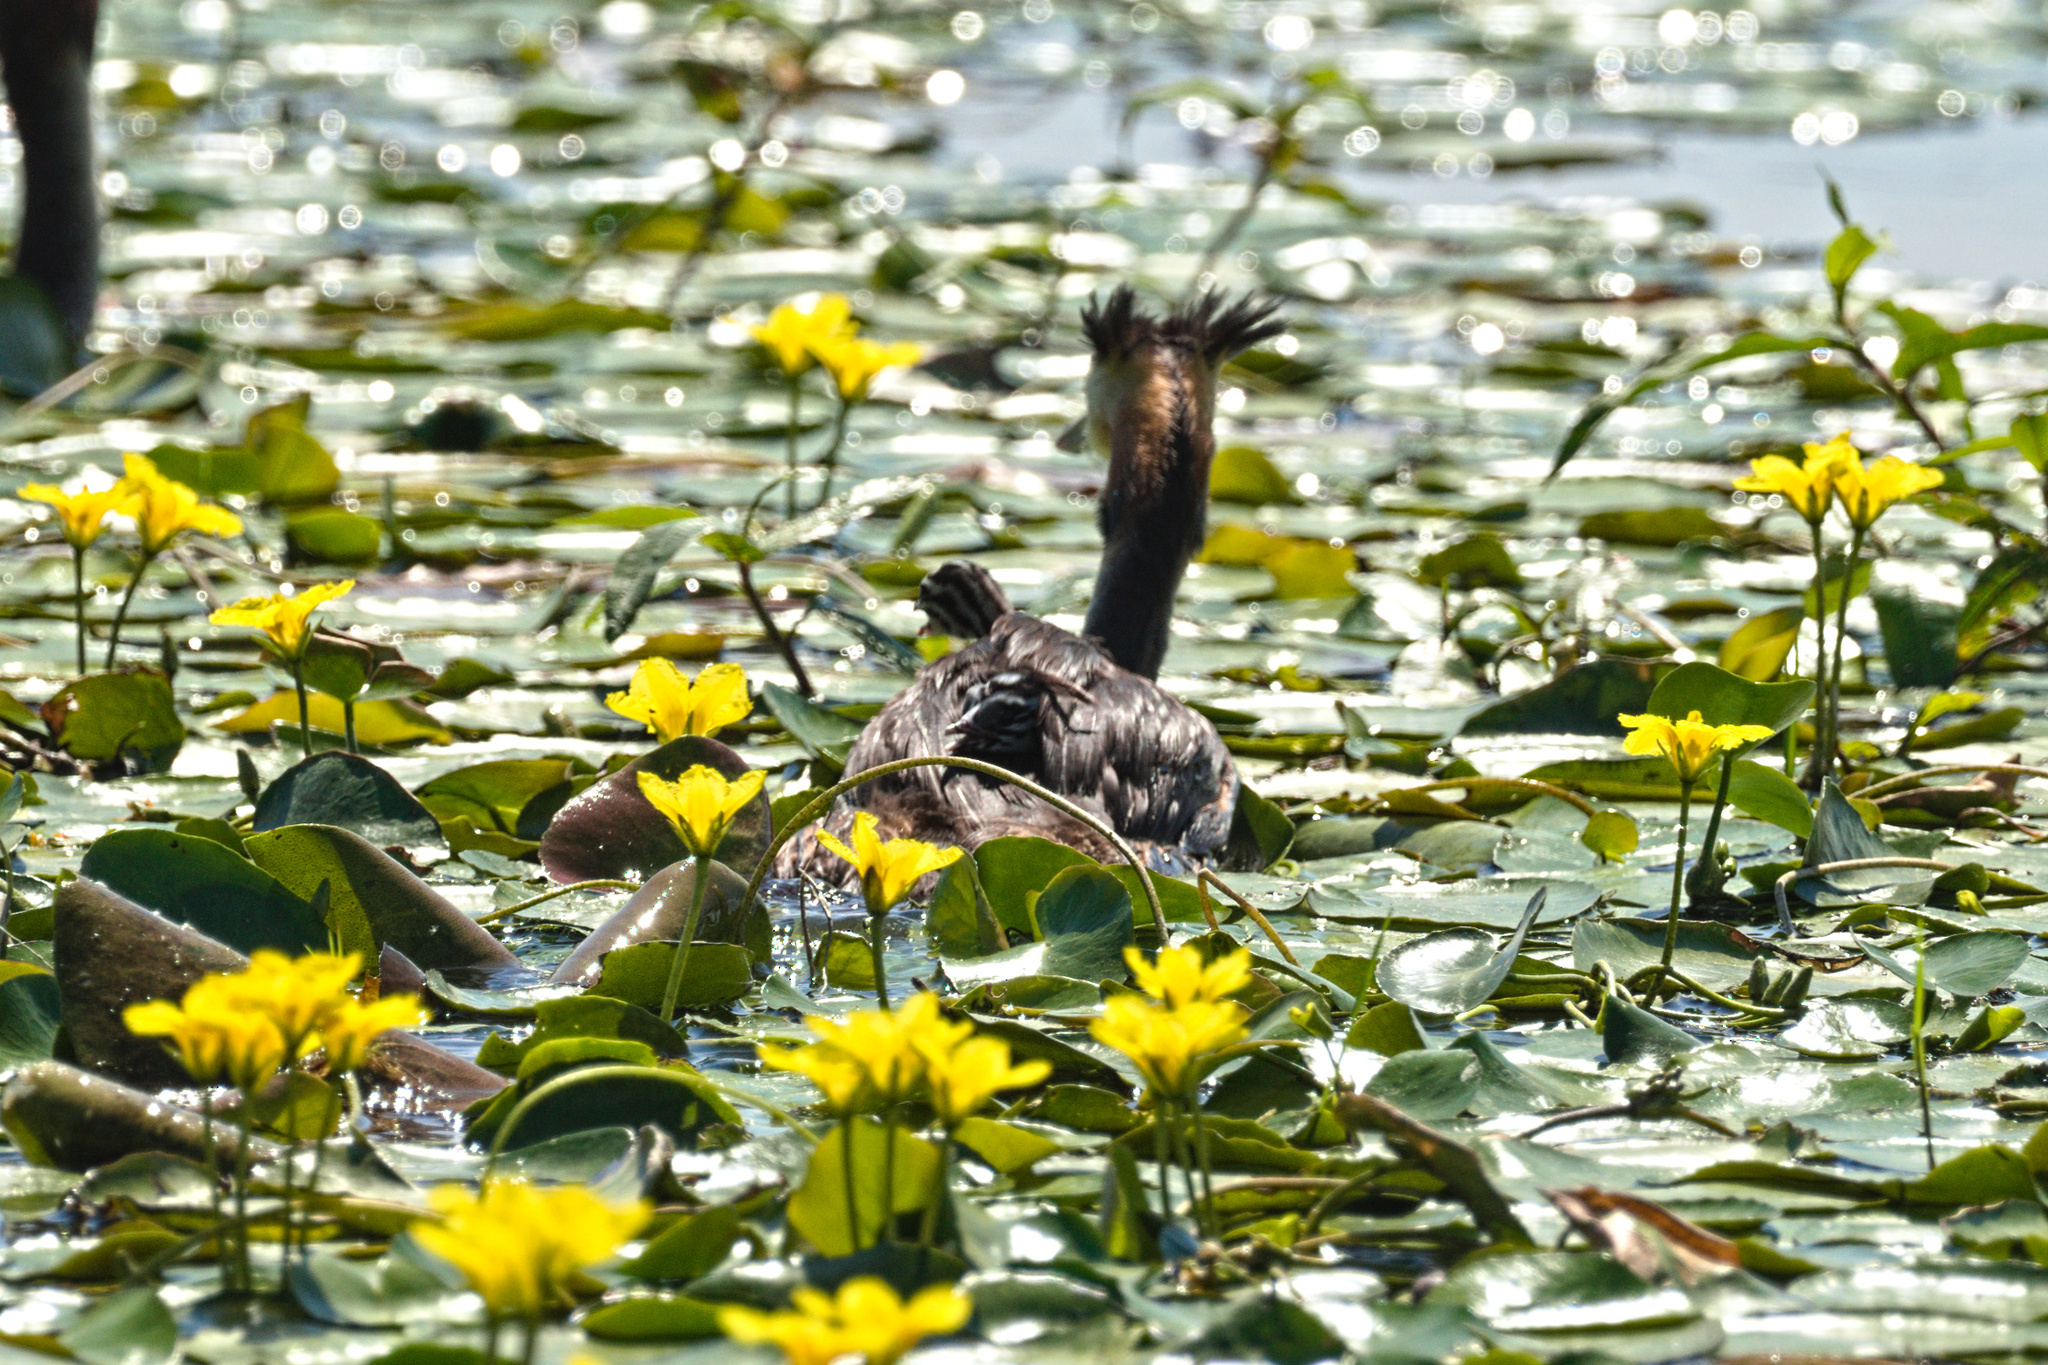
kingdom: Animalia
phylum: Chordata
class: Aves
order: Podicipediformes
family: Podicipedidae
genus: Podiceps
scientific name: Podiceps cristatus
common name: Great crested grebe
